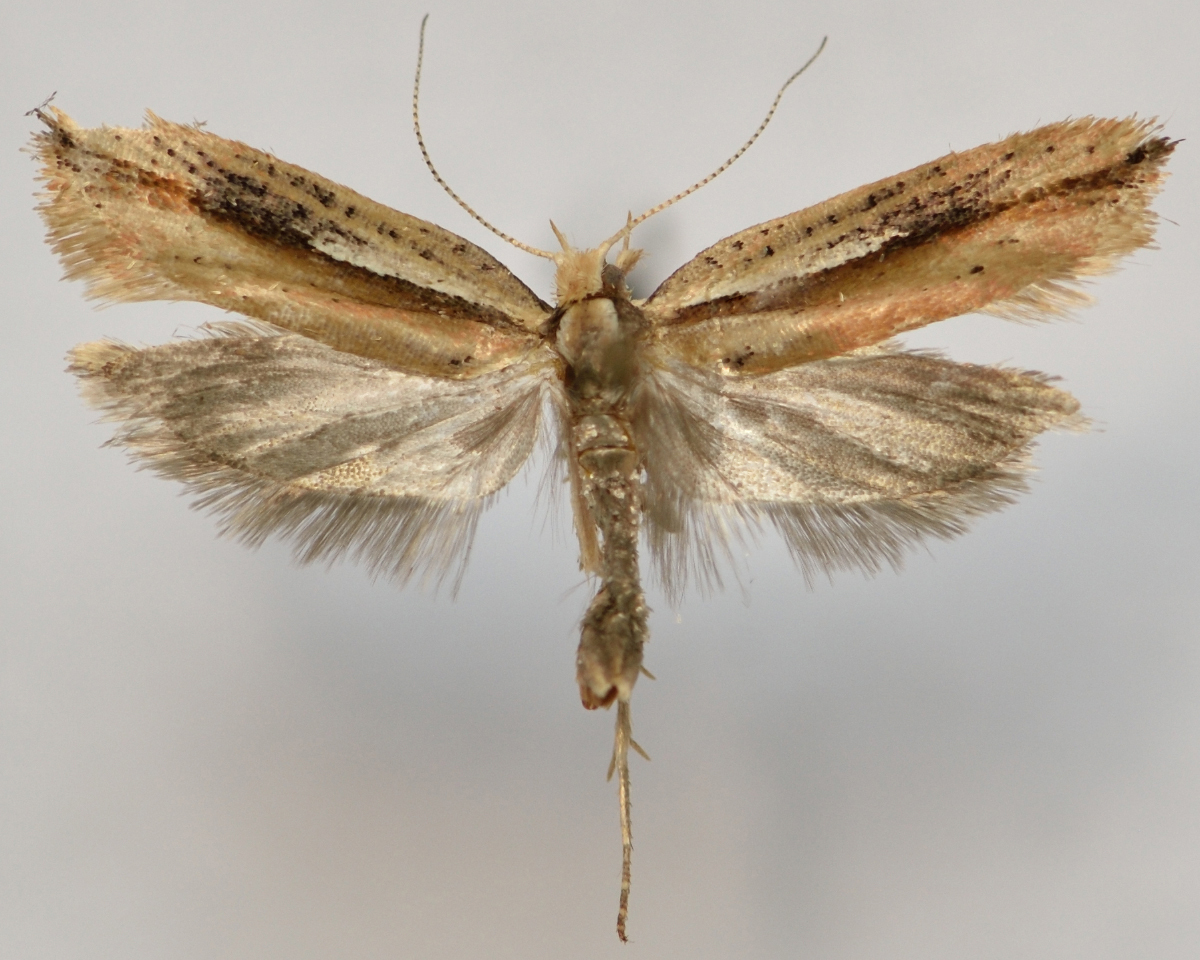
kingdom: Animalia
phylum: Arthropoda
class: Insecta
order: Lepidoptera
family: Ypsolophidae
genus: Ypsolopha
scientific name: Ypsolopha parenthesella
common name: White-shouldered smudge
